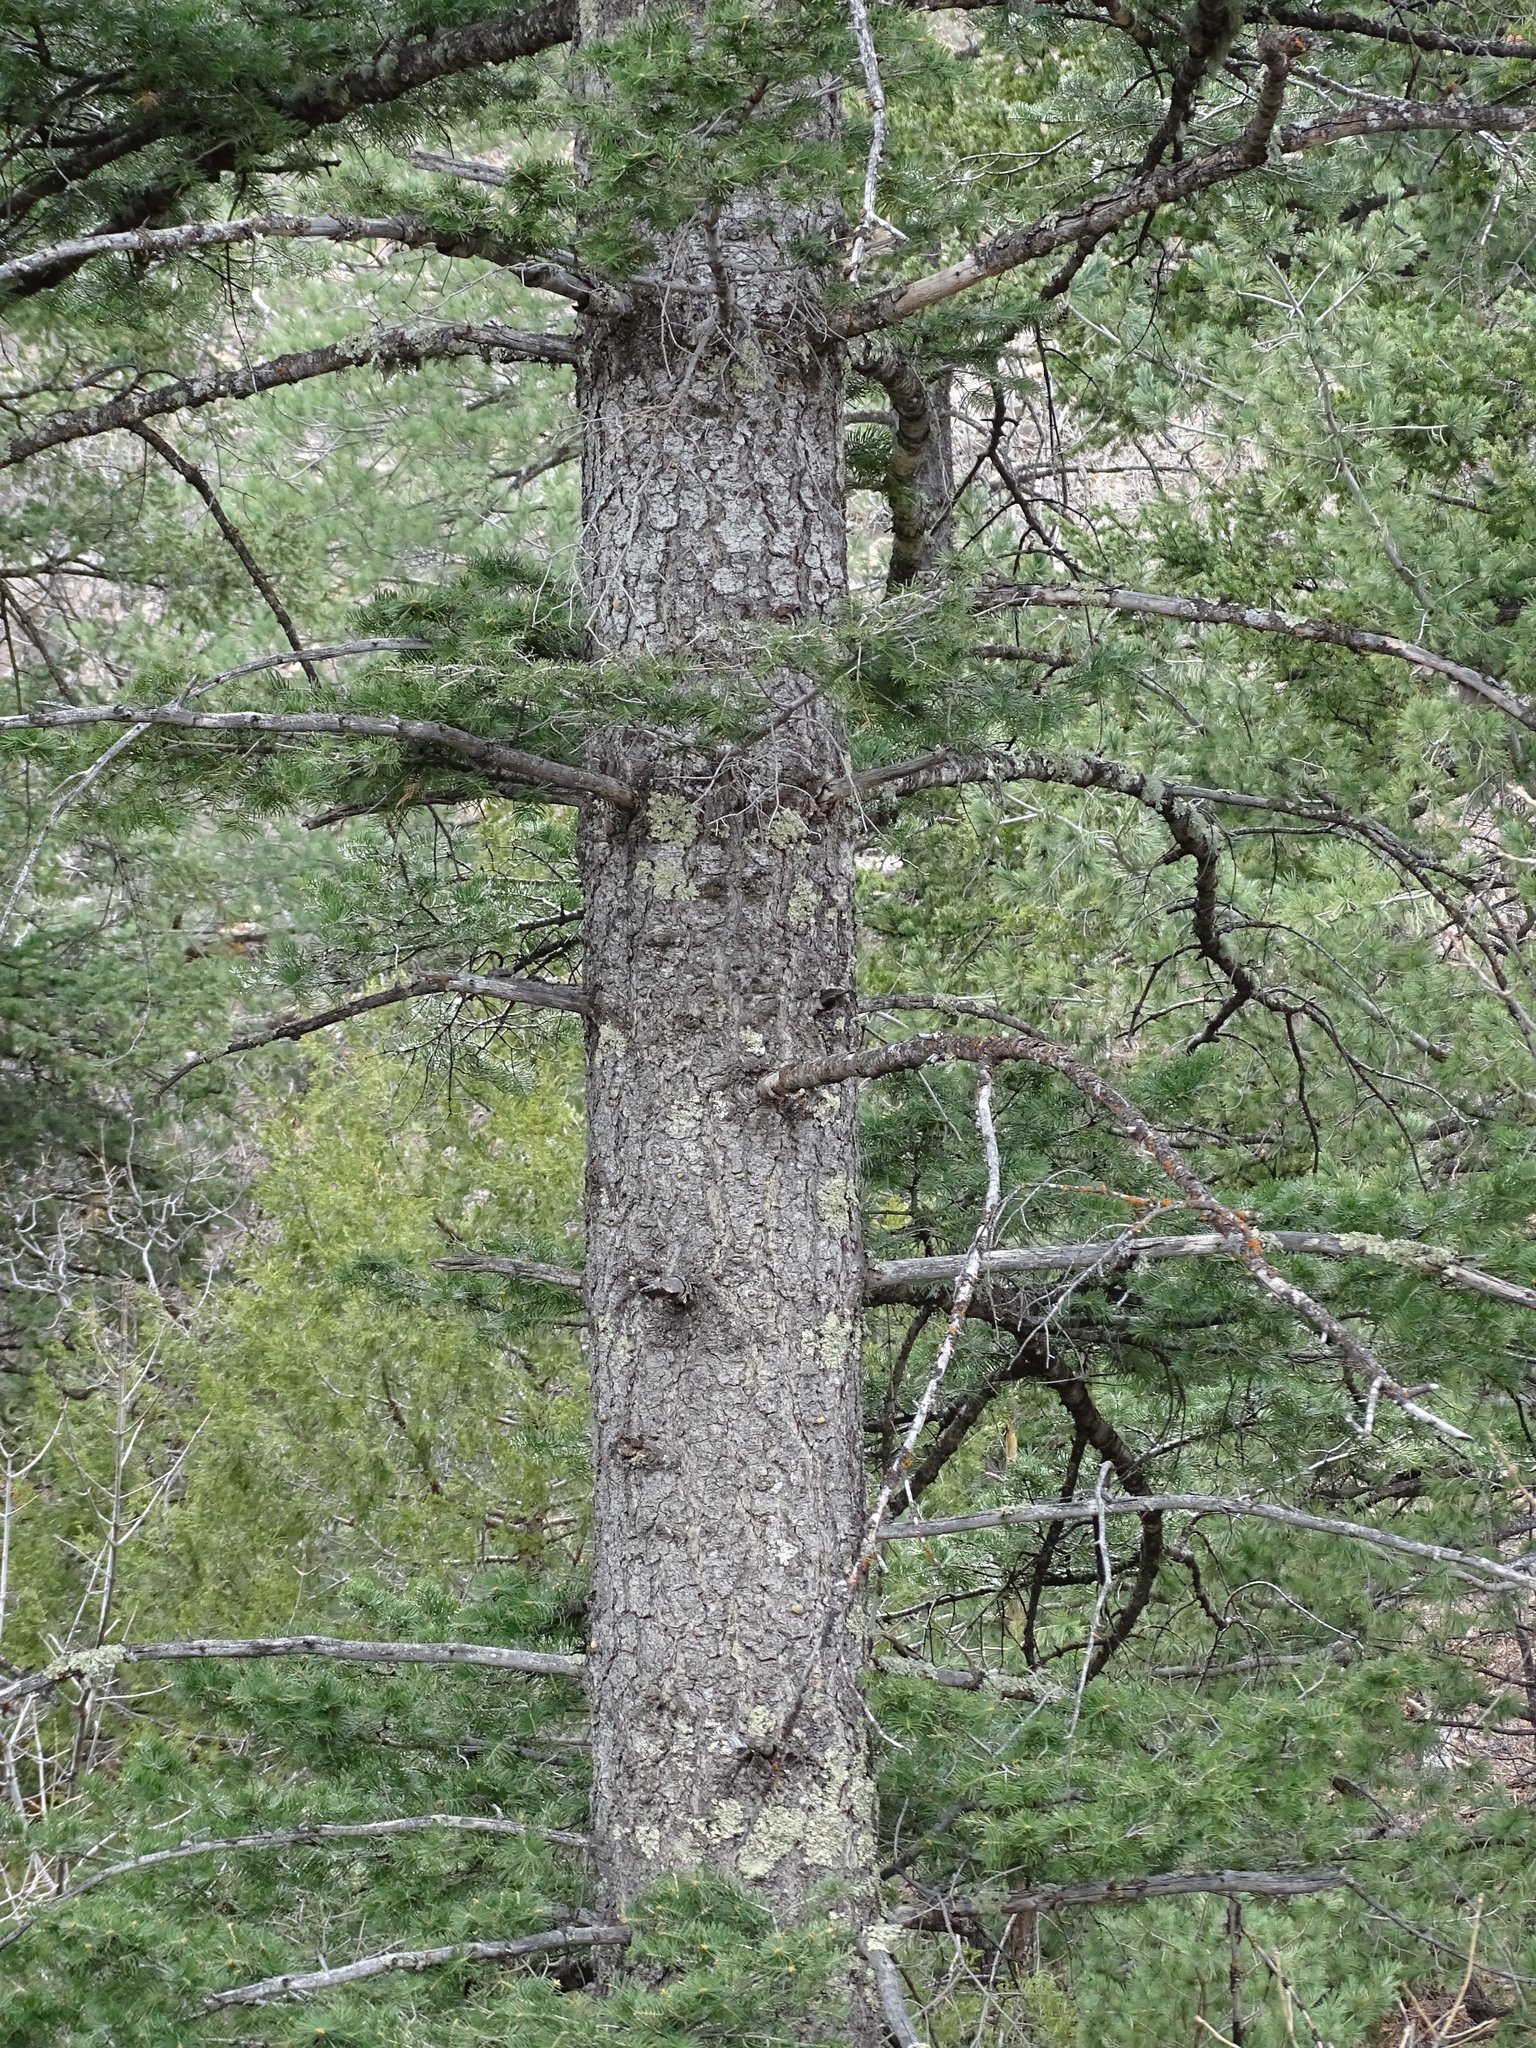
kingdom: Plantae
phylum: Tracheophyta
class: Pinopsida
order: Pinales
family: Pinaceae
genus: Abies
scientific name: Abies concolor
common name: Colorado fir
